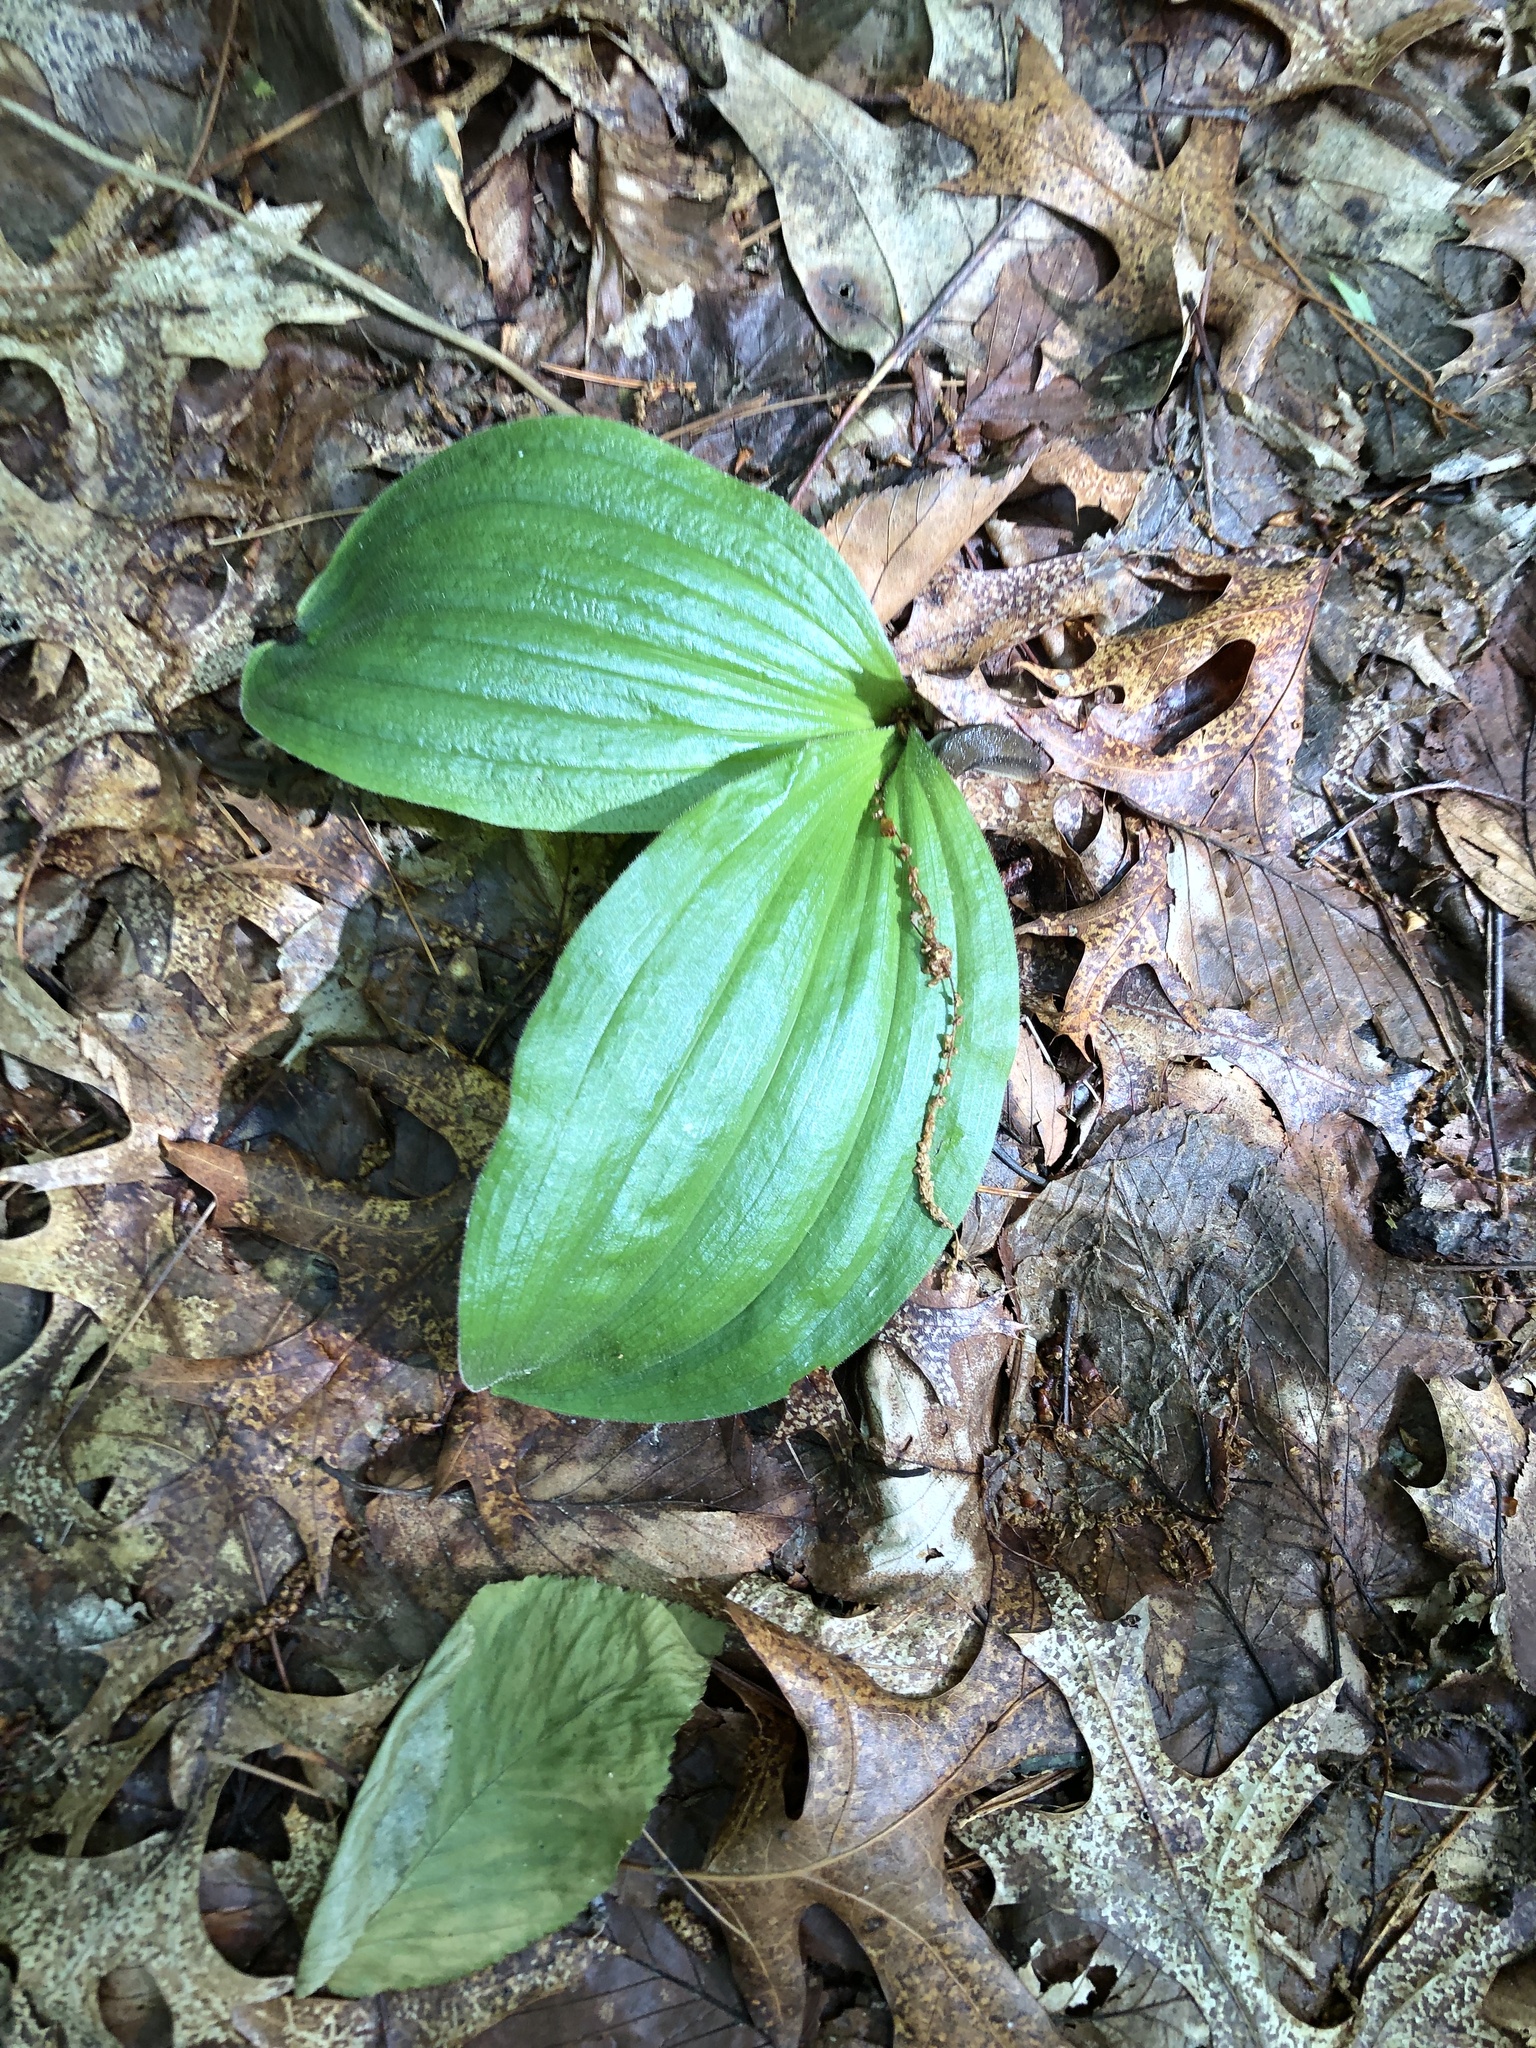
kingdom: Plantae
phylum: Tracheophyta
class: Liliopsida
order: Asparagales
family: Orchidaceae
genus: Cypripedium
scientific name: Cypripedium acaule
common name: Pink lady's-slipper
